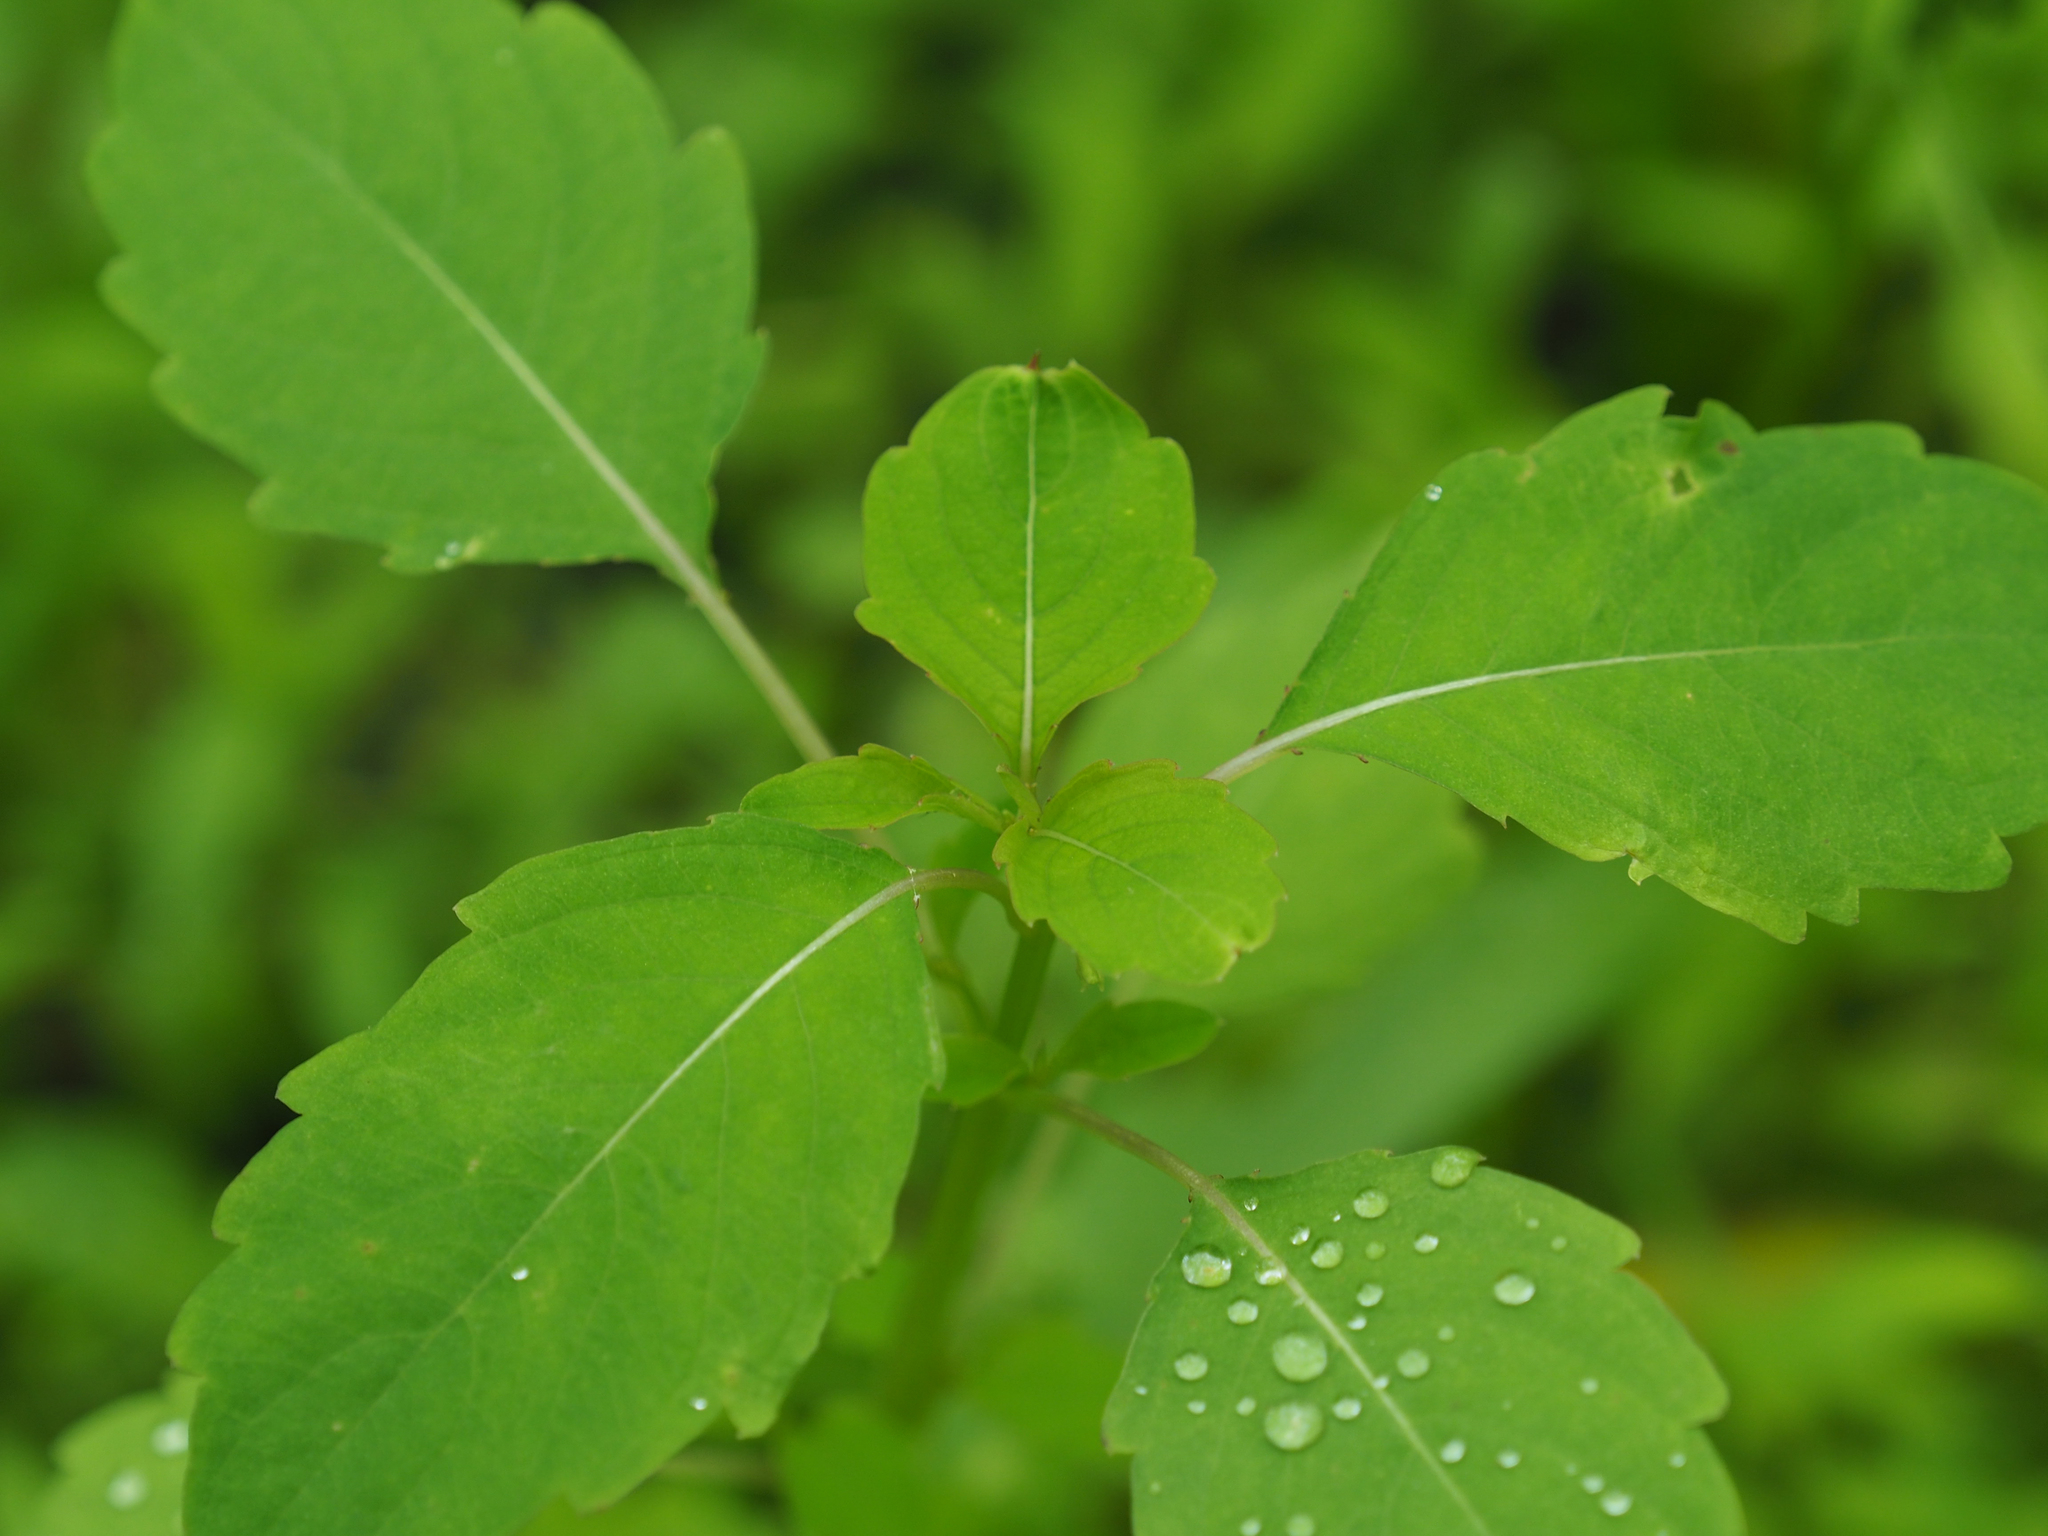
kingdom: Plantae
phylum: Tracheophyta
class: Magnoliopsida
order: Ericales
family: Balsaminaceae
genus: Impatiens
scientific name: Impatiens capensis
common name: Orange balsam
